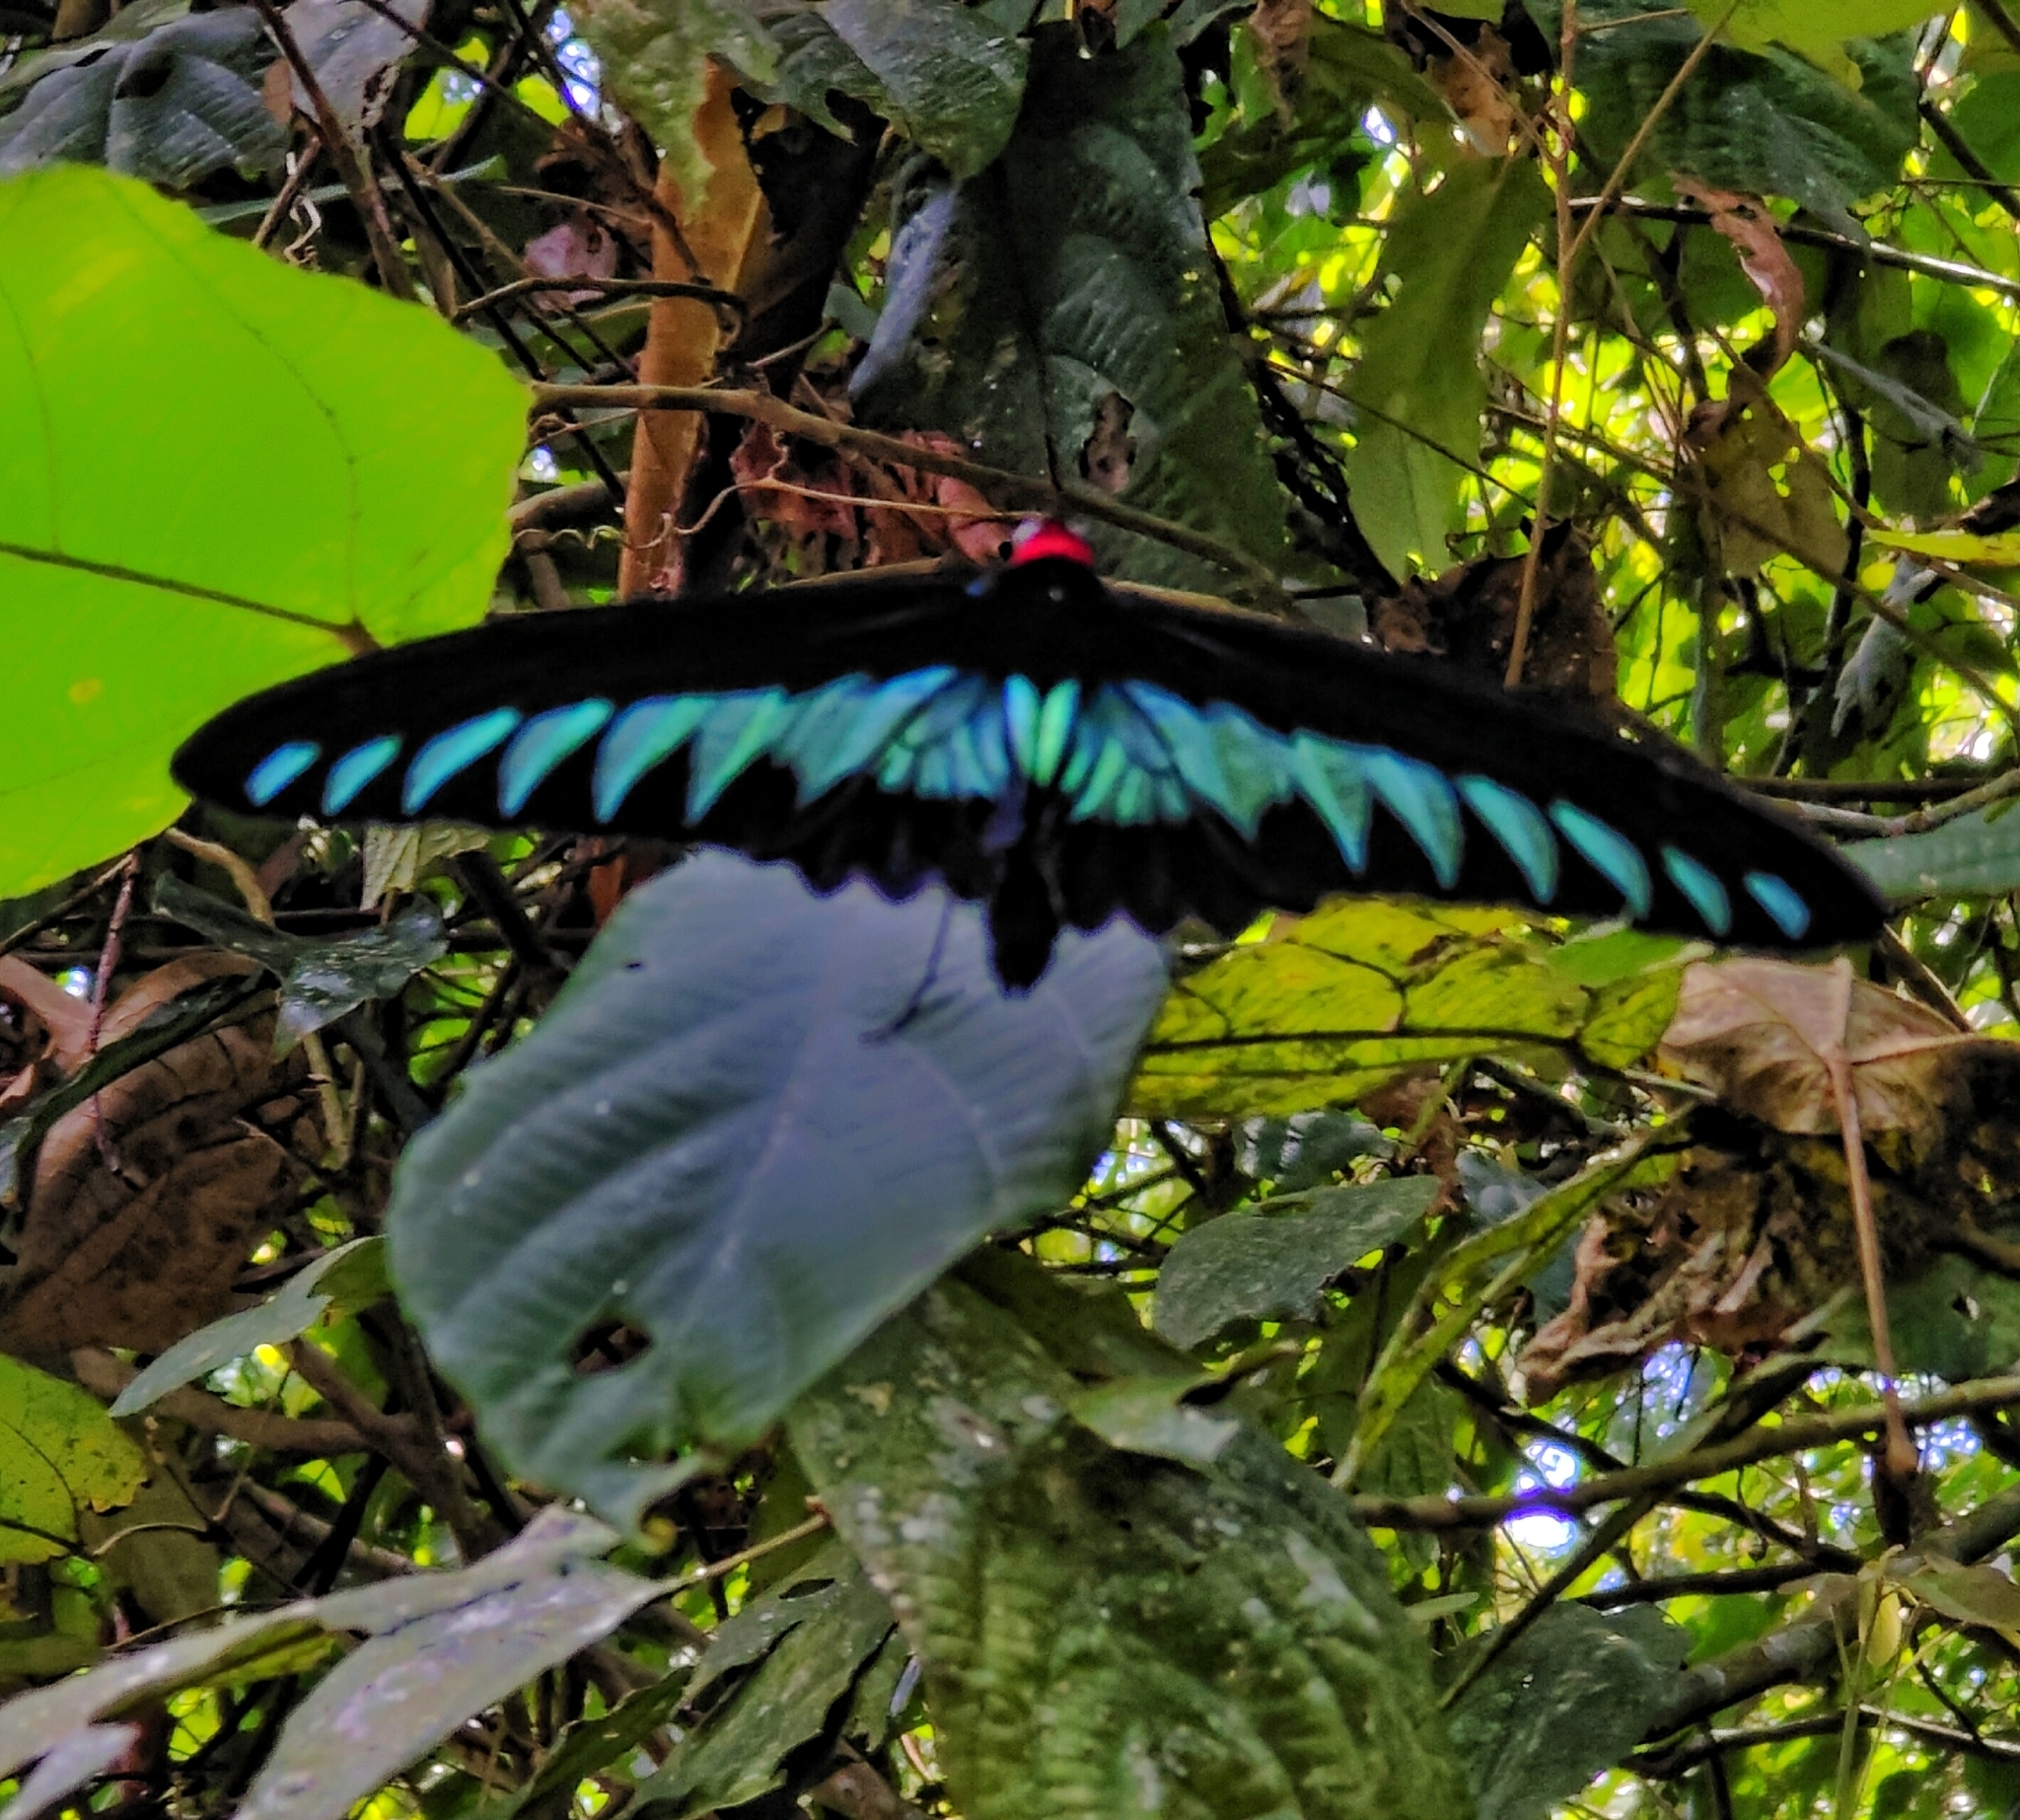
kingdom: Animalia
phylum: Arthropoda
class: Insecta
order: Lepidoptera
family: Papilionidae
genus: Trogonoptera
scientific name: Trogonoptera brookiana
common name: Raja brooke's birdwing
